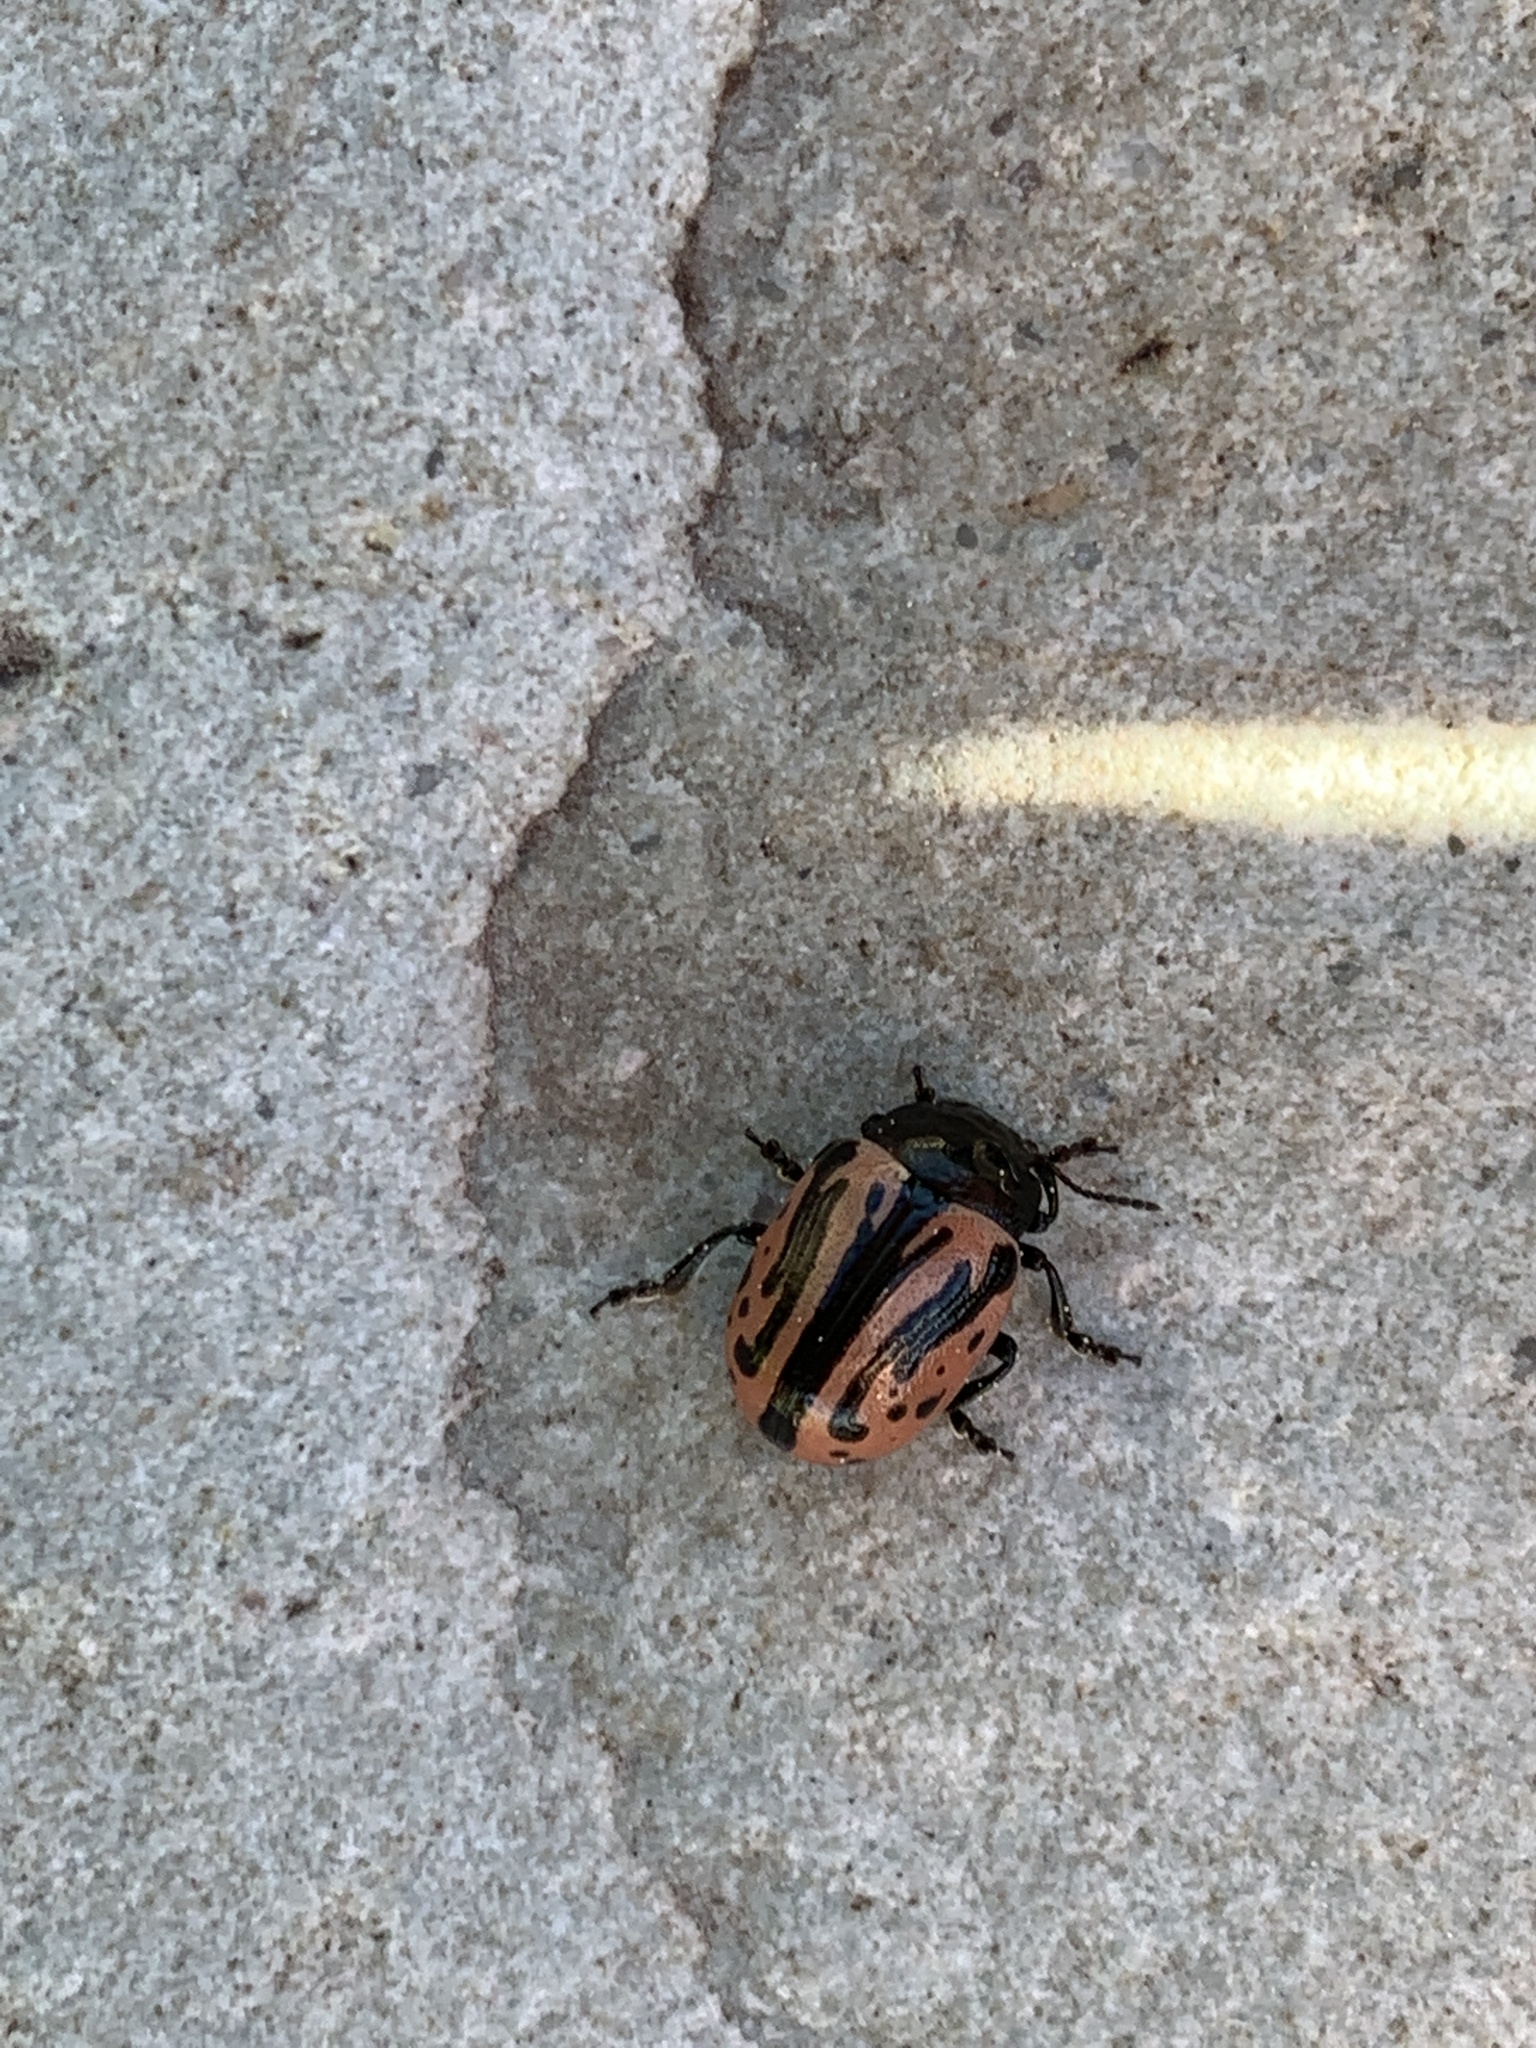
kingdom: Animalia
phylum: Arthropoda
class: Insecta
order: Coleoptera
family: Chrysomelidae
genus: Calligrapha
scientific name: Calligrapha sigmoidea
